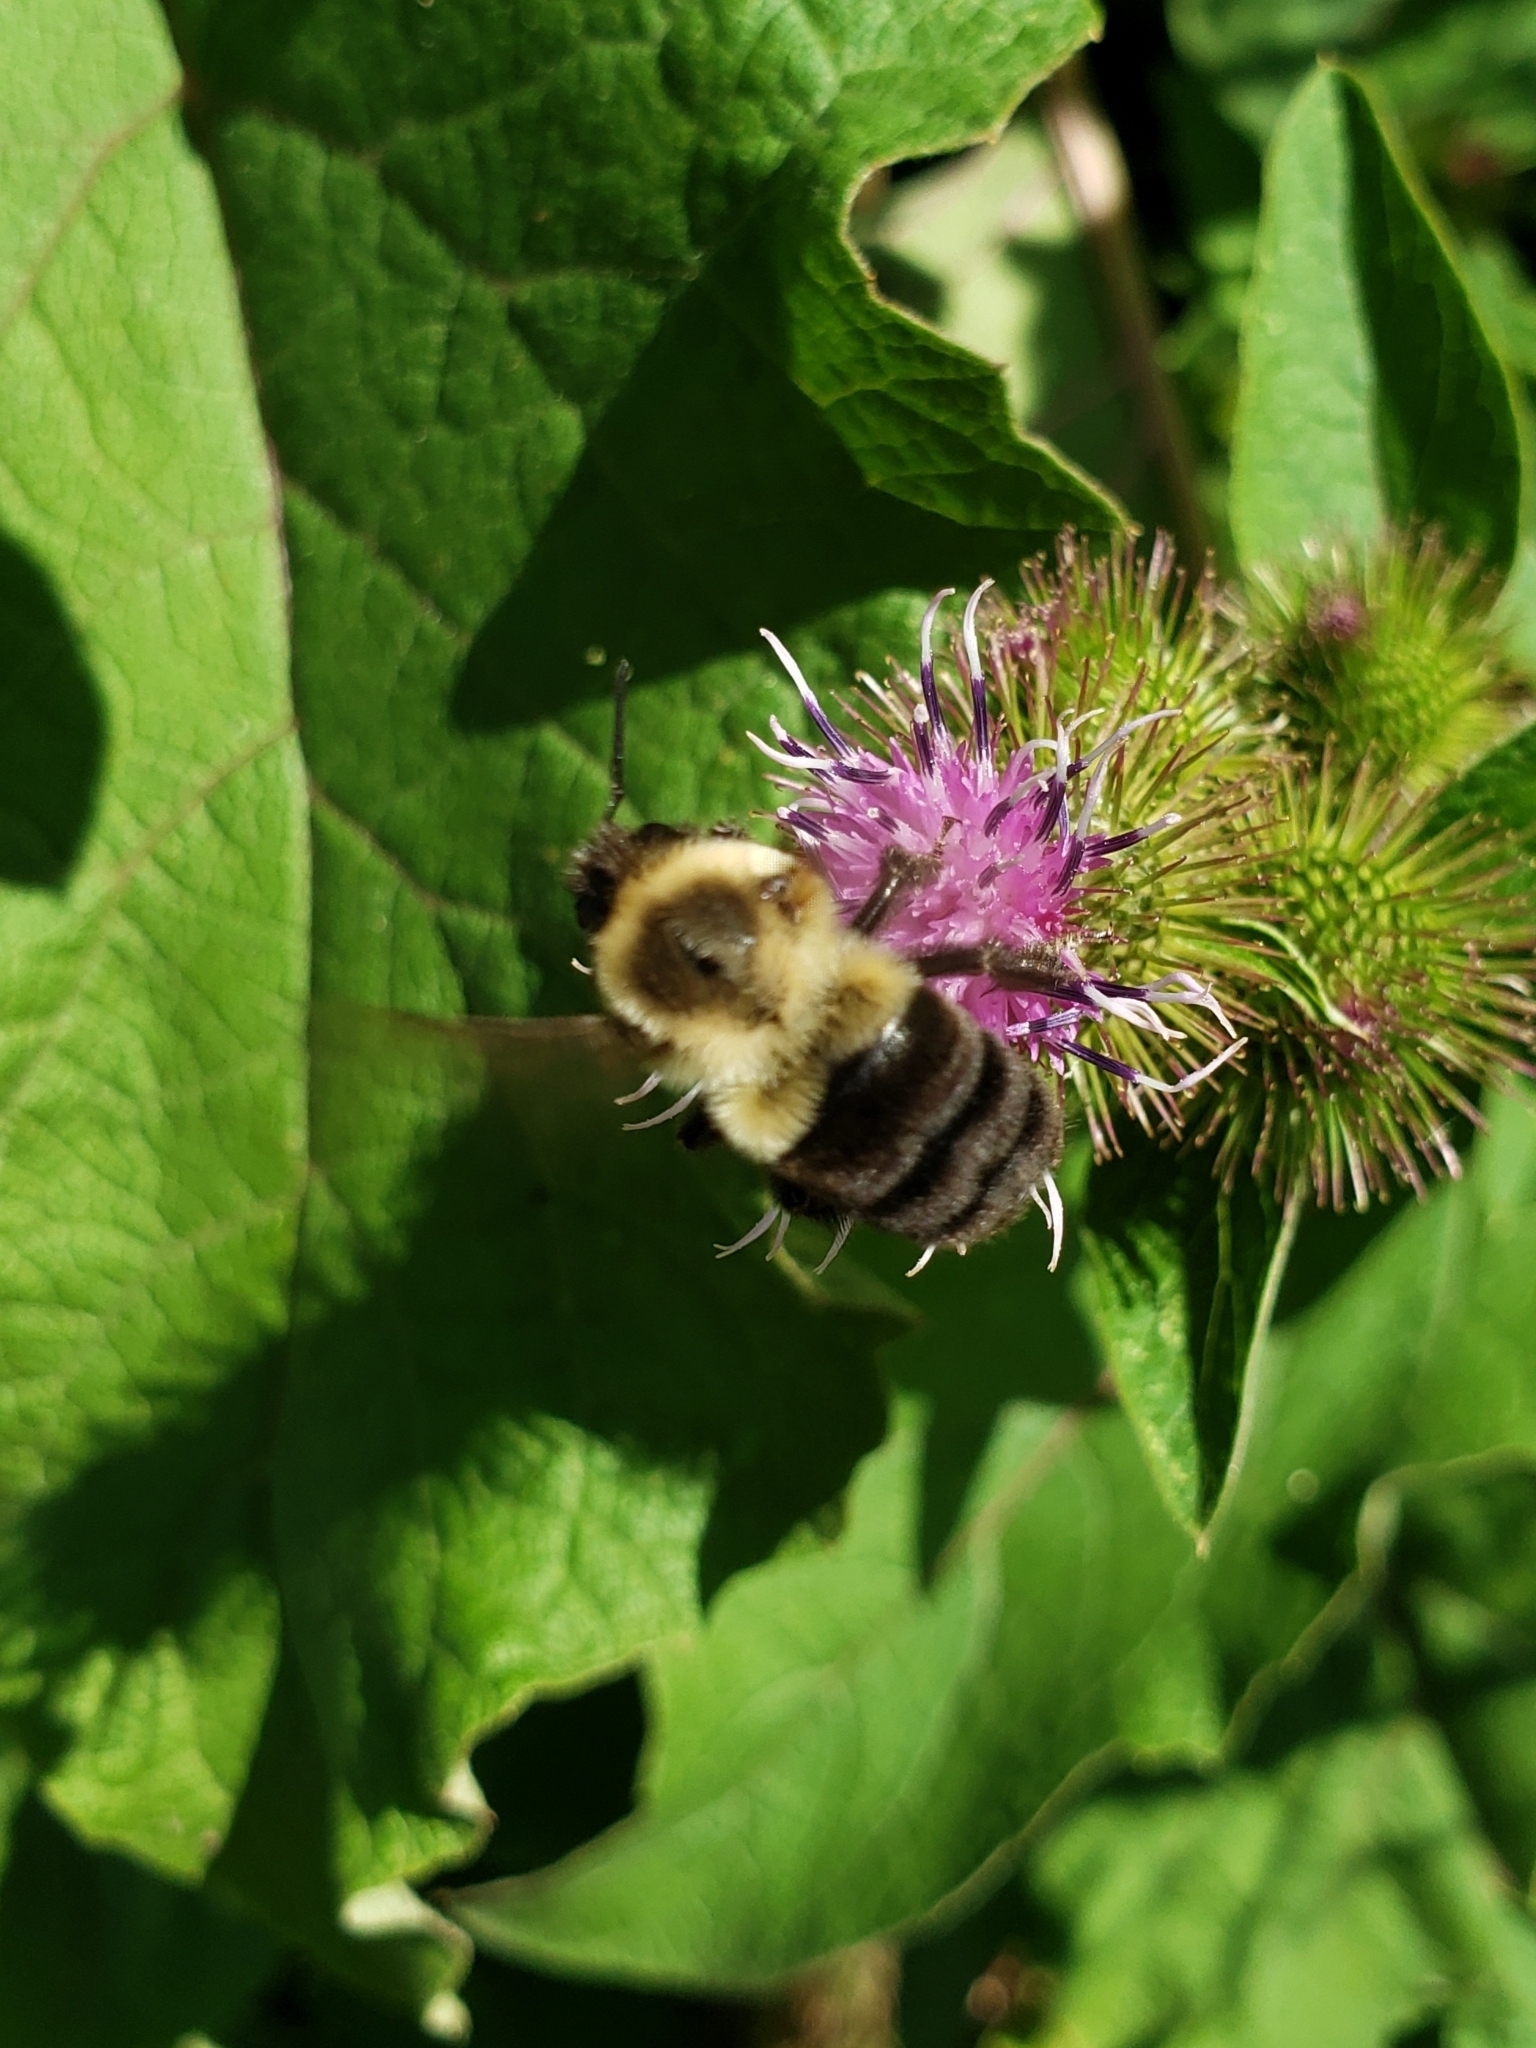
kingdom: Animalia
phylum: Arthropoda
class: Insecta
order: Hymenoptera
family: Apidae
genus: Bombus
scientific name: Bombus impatiens
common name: Common eastern bumble bee
